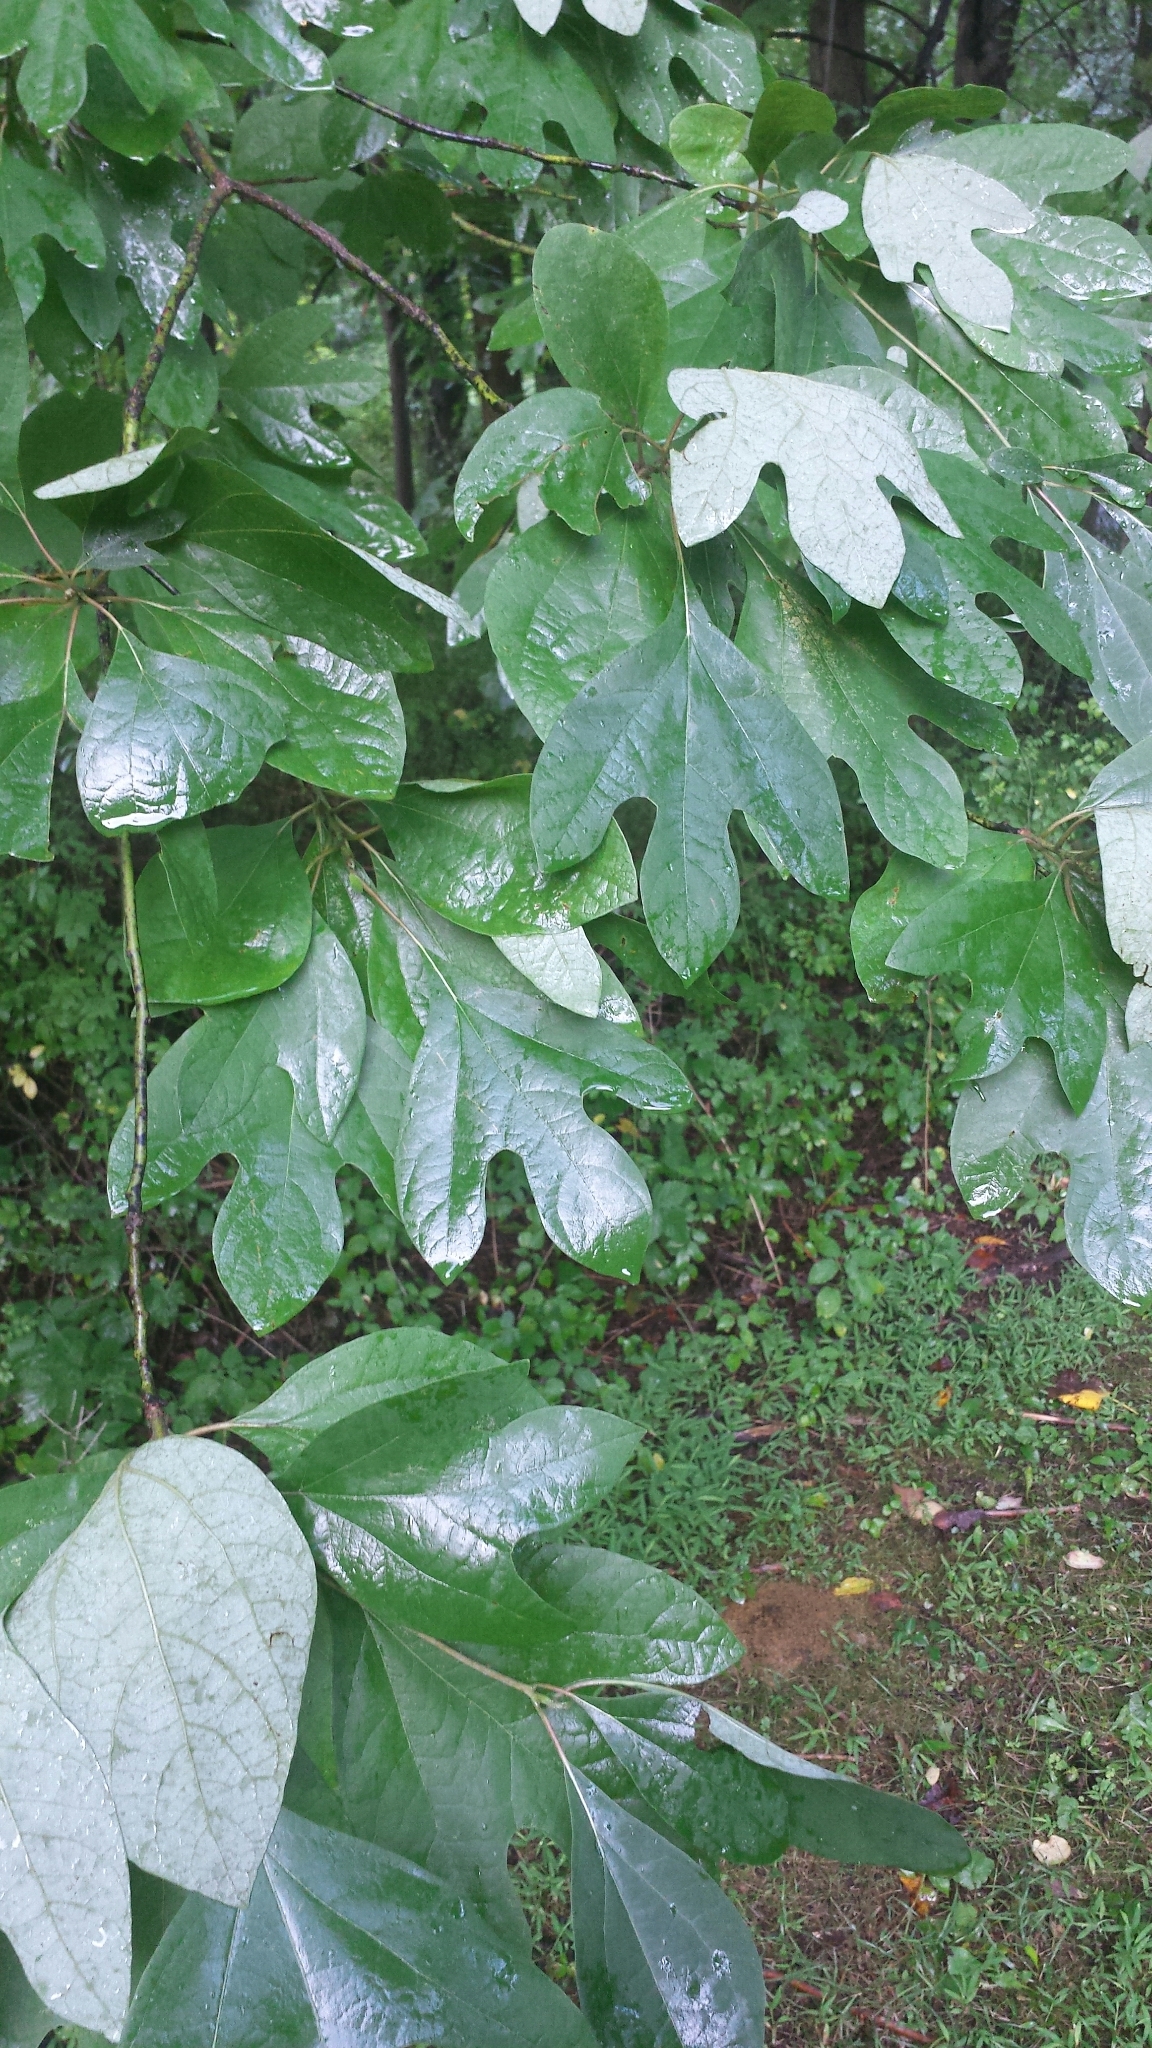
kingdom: Plantae
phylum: Tracheophyta
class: Magnoliopsida
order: Laurales
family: Lauraceae
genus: Sassafras
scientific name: Sassafras albidum
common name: Sassafras
